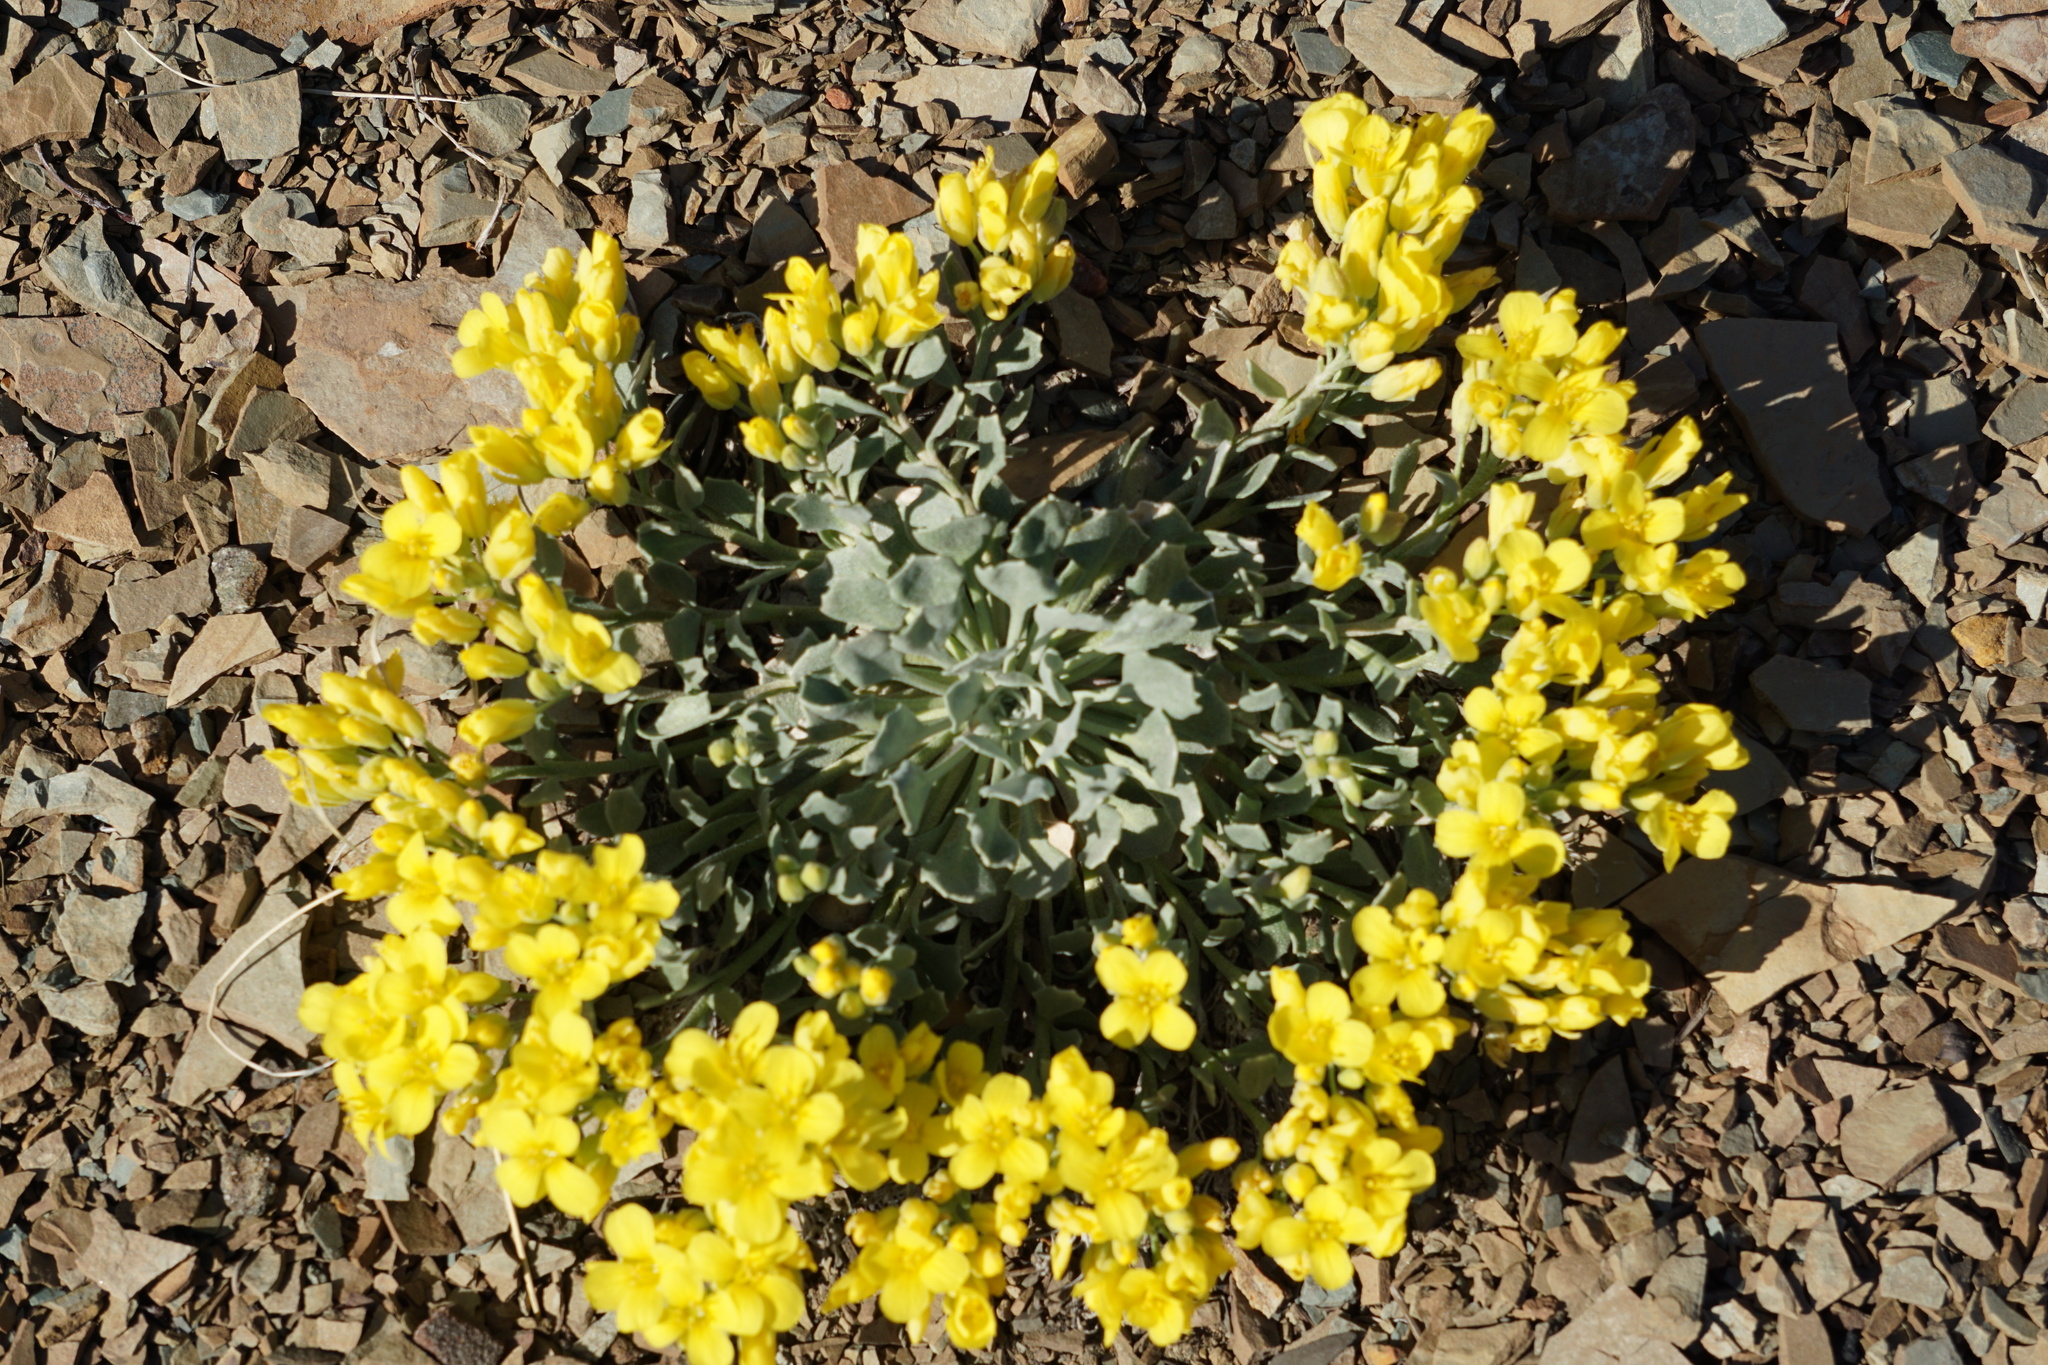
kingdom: Plantae
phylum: Tracheophyta
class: Magnoliopsida
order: Brassicales
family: Brassicaceae
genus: Physaria
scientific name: Physaria didymocarpa
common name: Common twinpod
